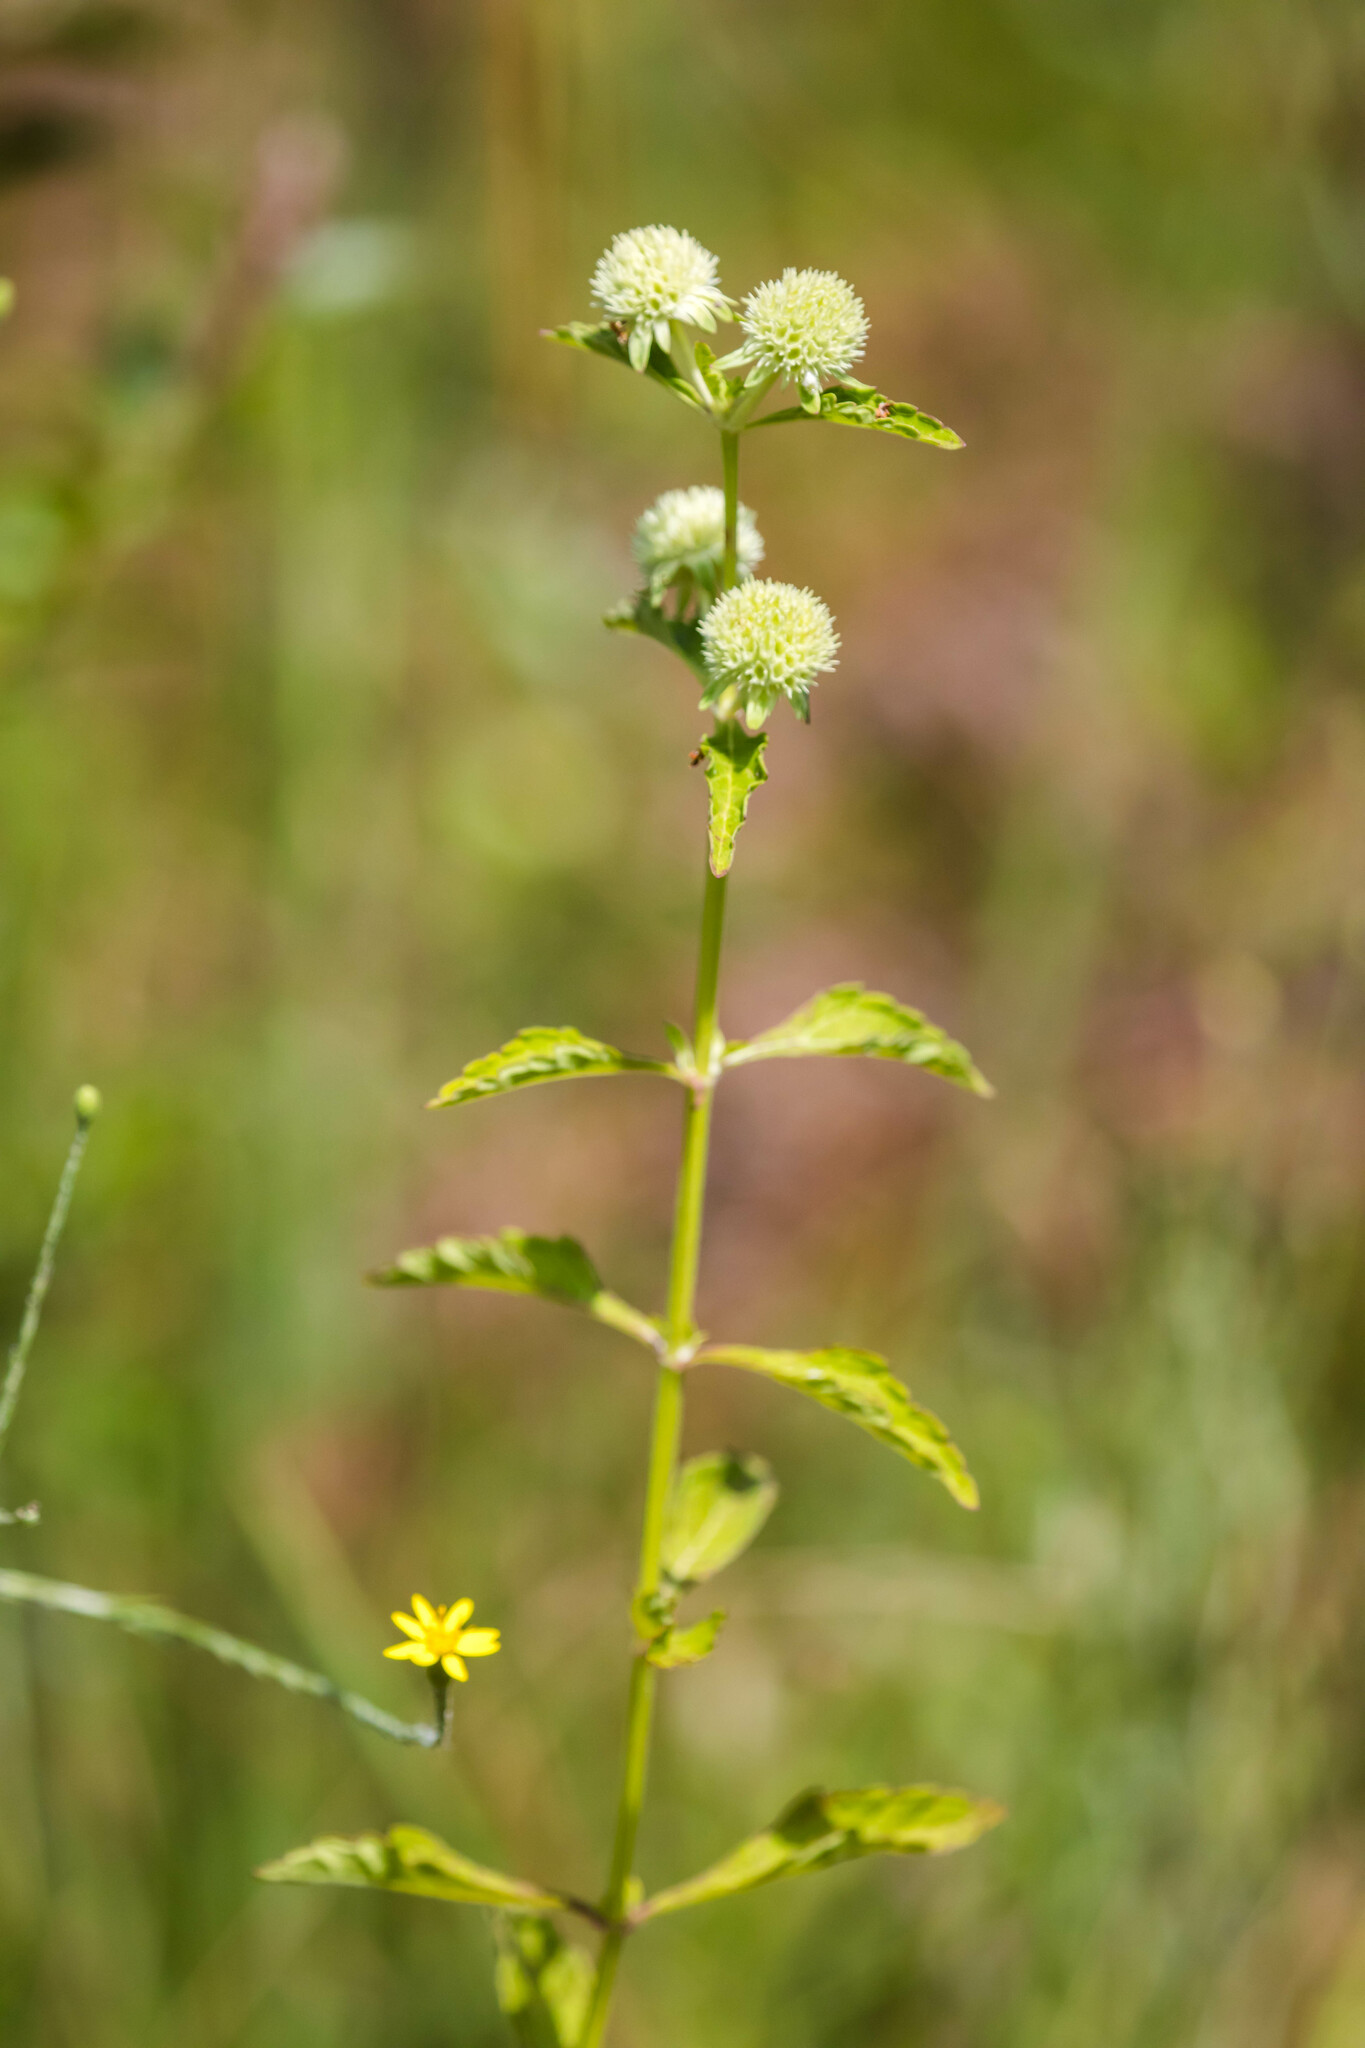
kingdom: Plantae
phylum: Tracheophyta
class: Magnoliopsida
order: Lamiales
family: Lamiaceae
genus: Hyptis
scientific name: Hyptis alata
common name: Cluster bush-mint
